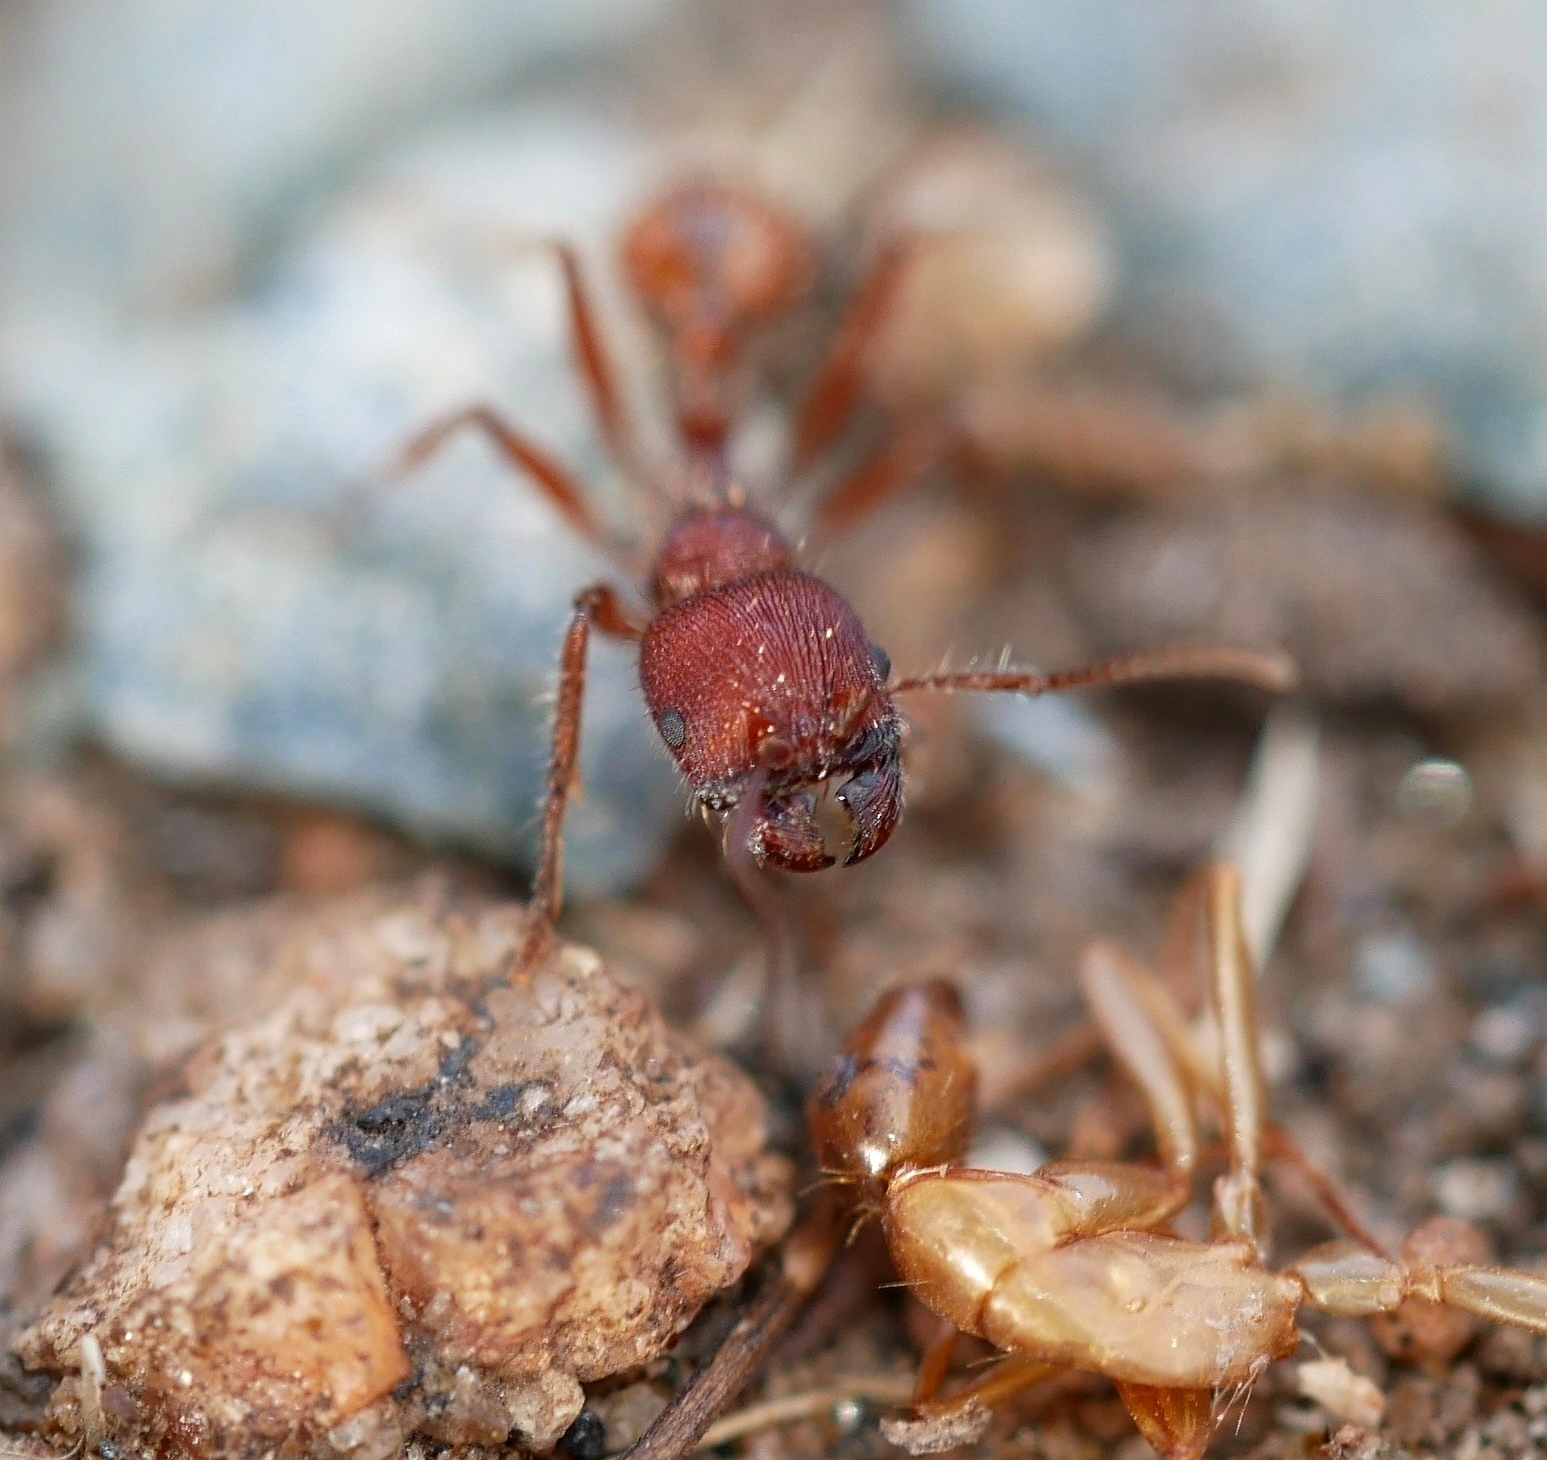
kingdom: Animalia
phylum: Arthropoda
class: Insecta
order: Hymenoptera
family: Formicidae
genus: Veromessor
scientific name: Veromessor andrei
